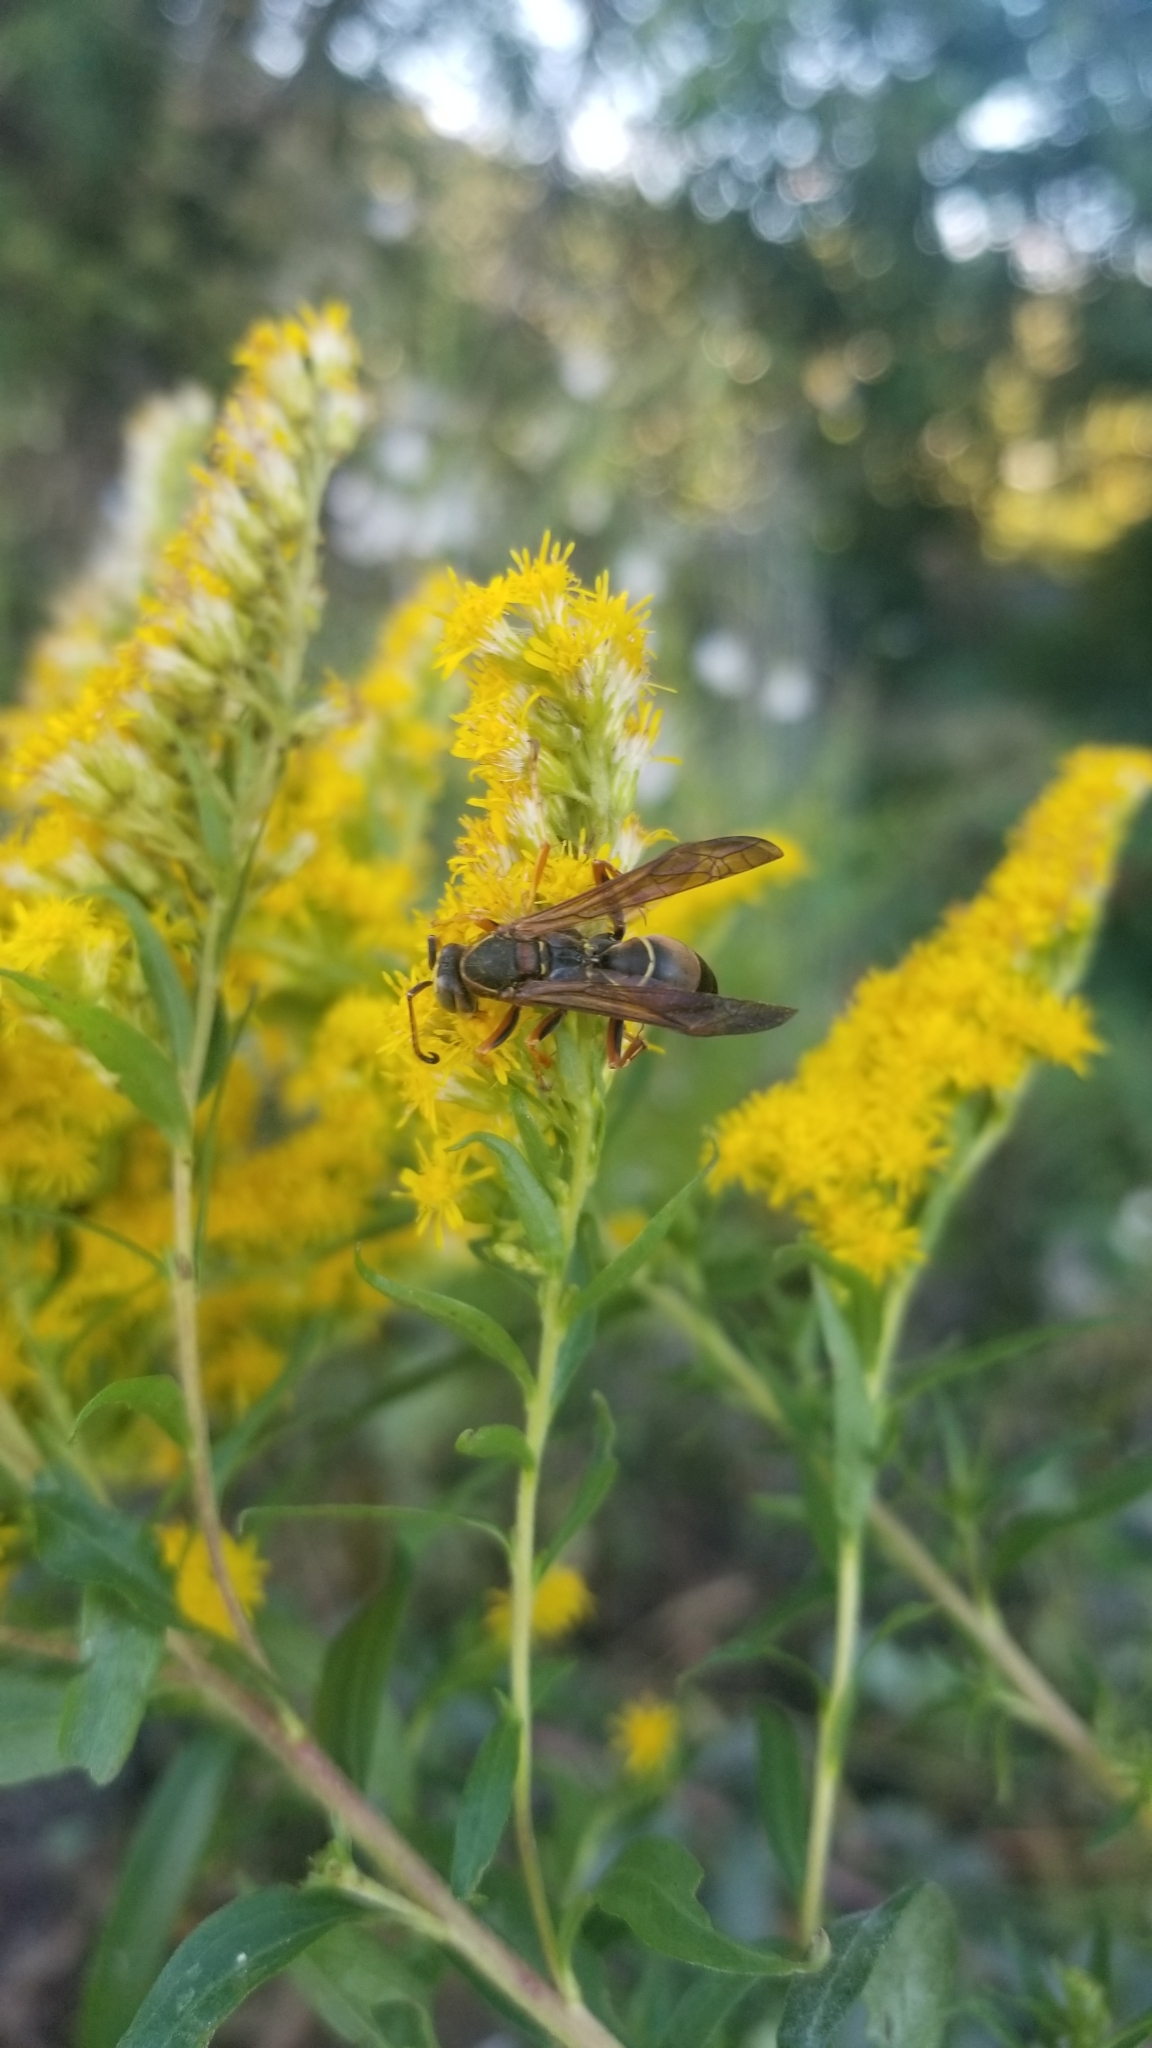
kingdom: Animalia
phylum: Arthropoda
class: Insecta
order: Hymenoptera
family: Eumenidae
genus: Polistes
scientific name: Polistes fuscatus
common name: Dark paper wasp
